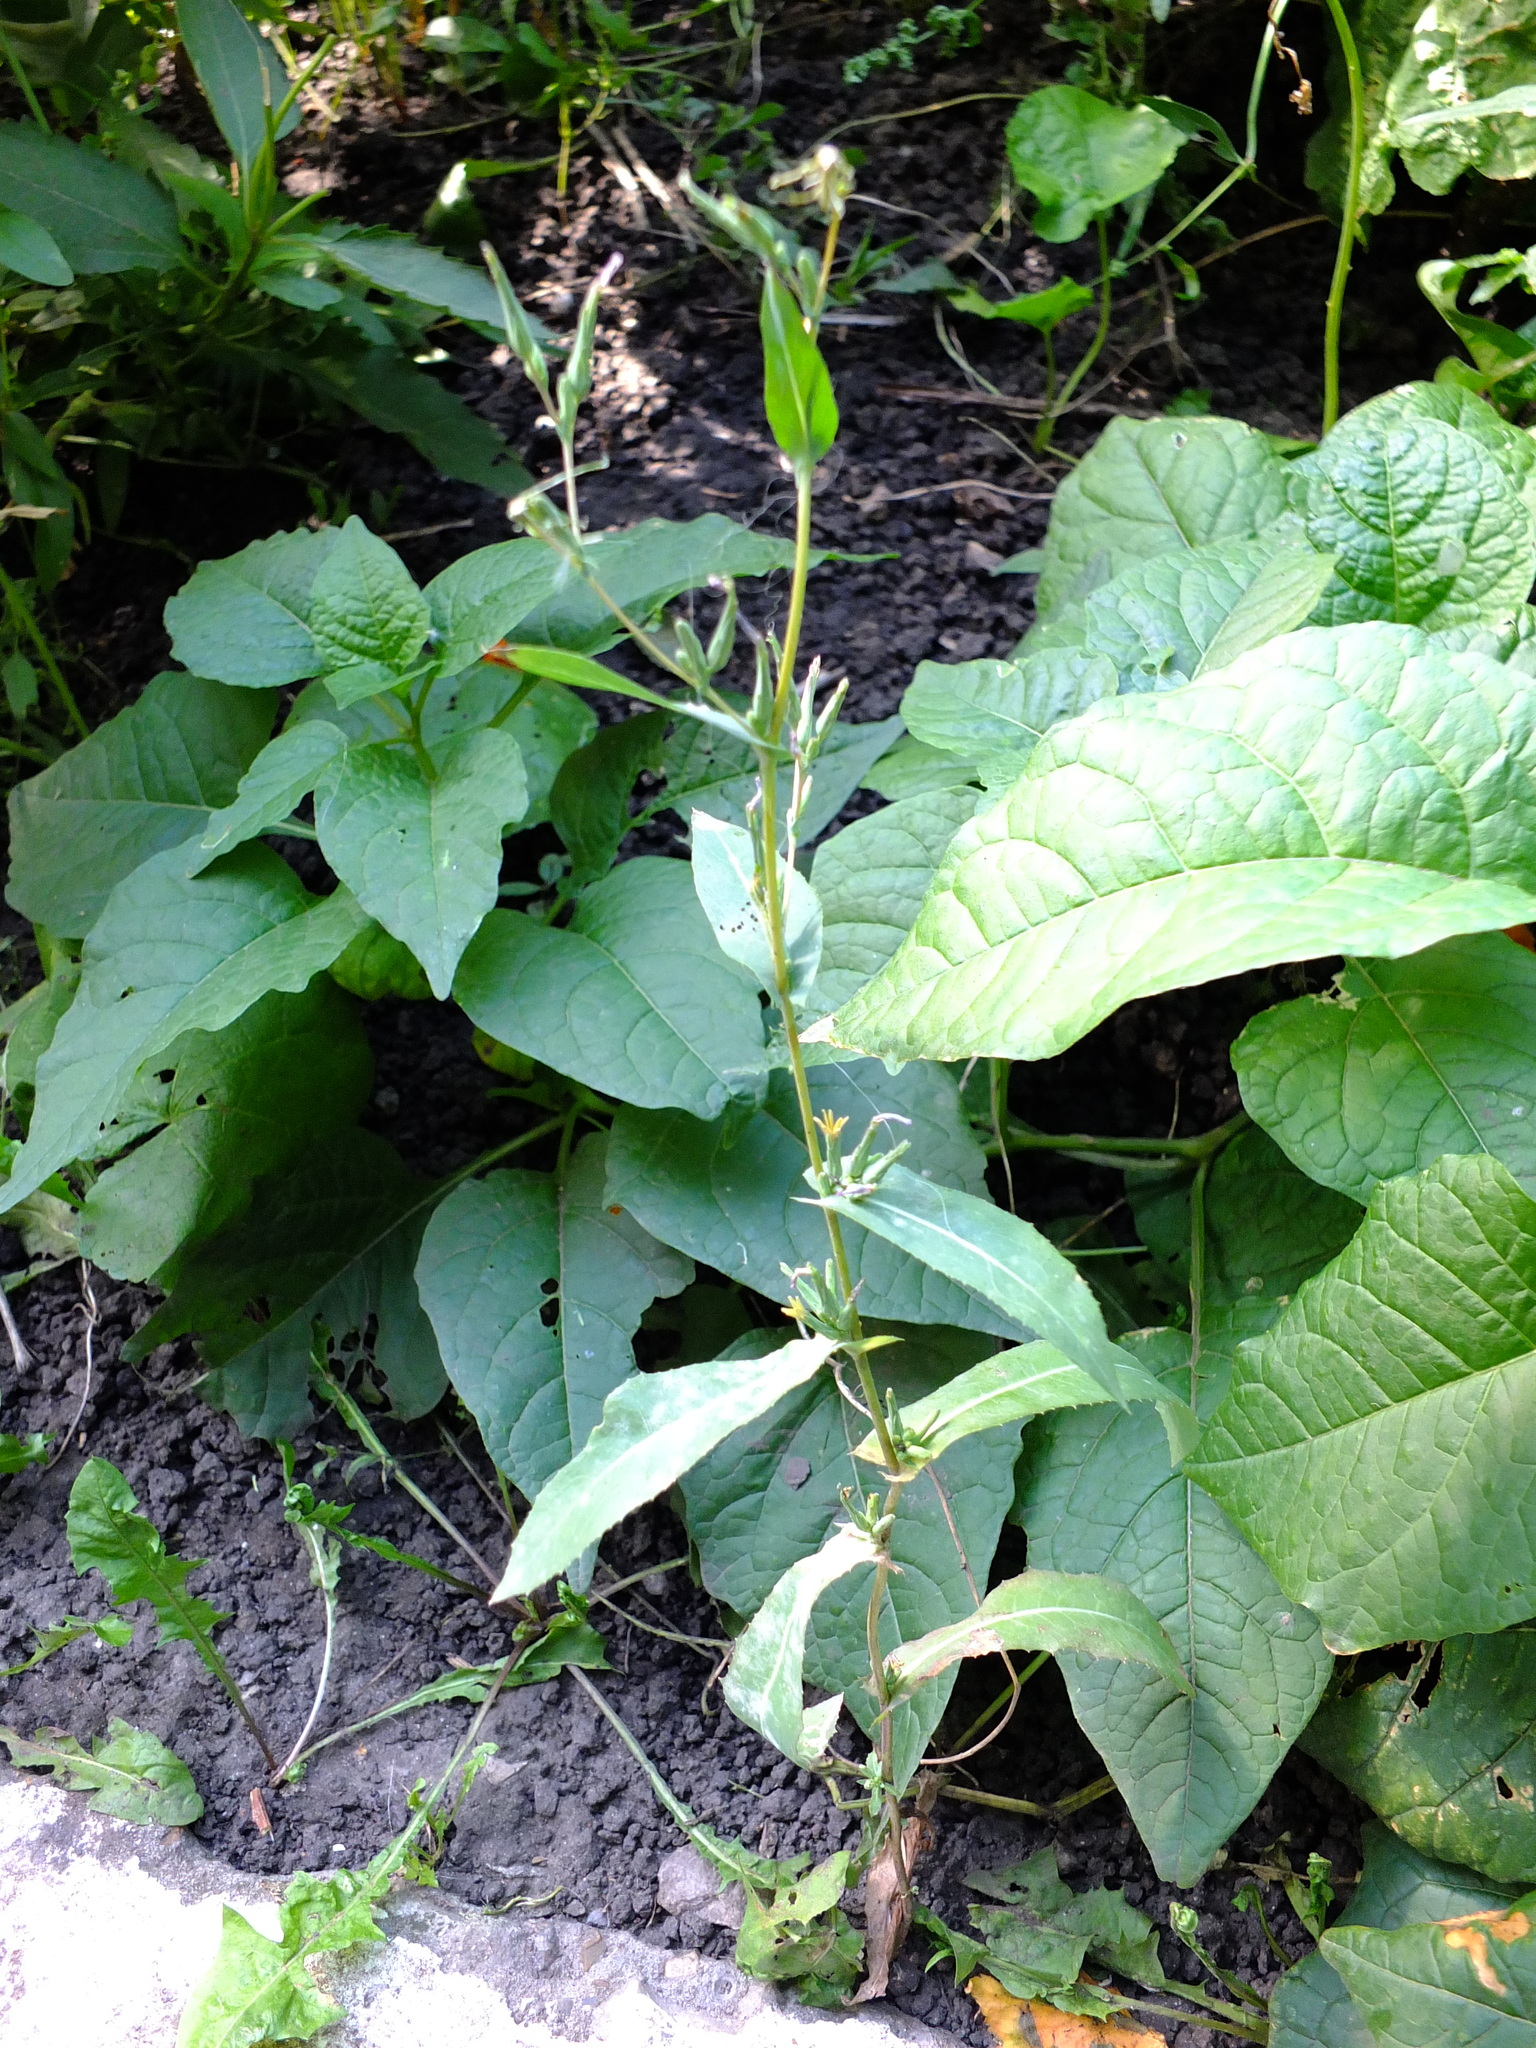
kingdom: Plantae
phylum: Tracheophyta
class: Magnoliopsida
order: Asterales
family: Asteraceae
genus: Lactuca
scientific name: Lactuca serriola
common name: Prickly lettuce
